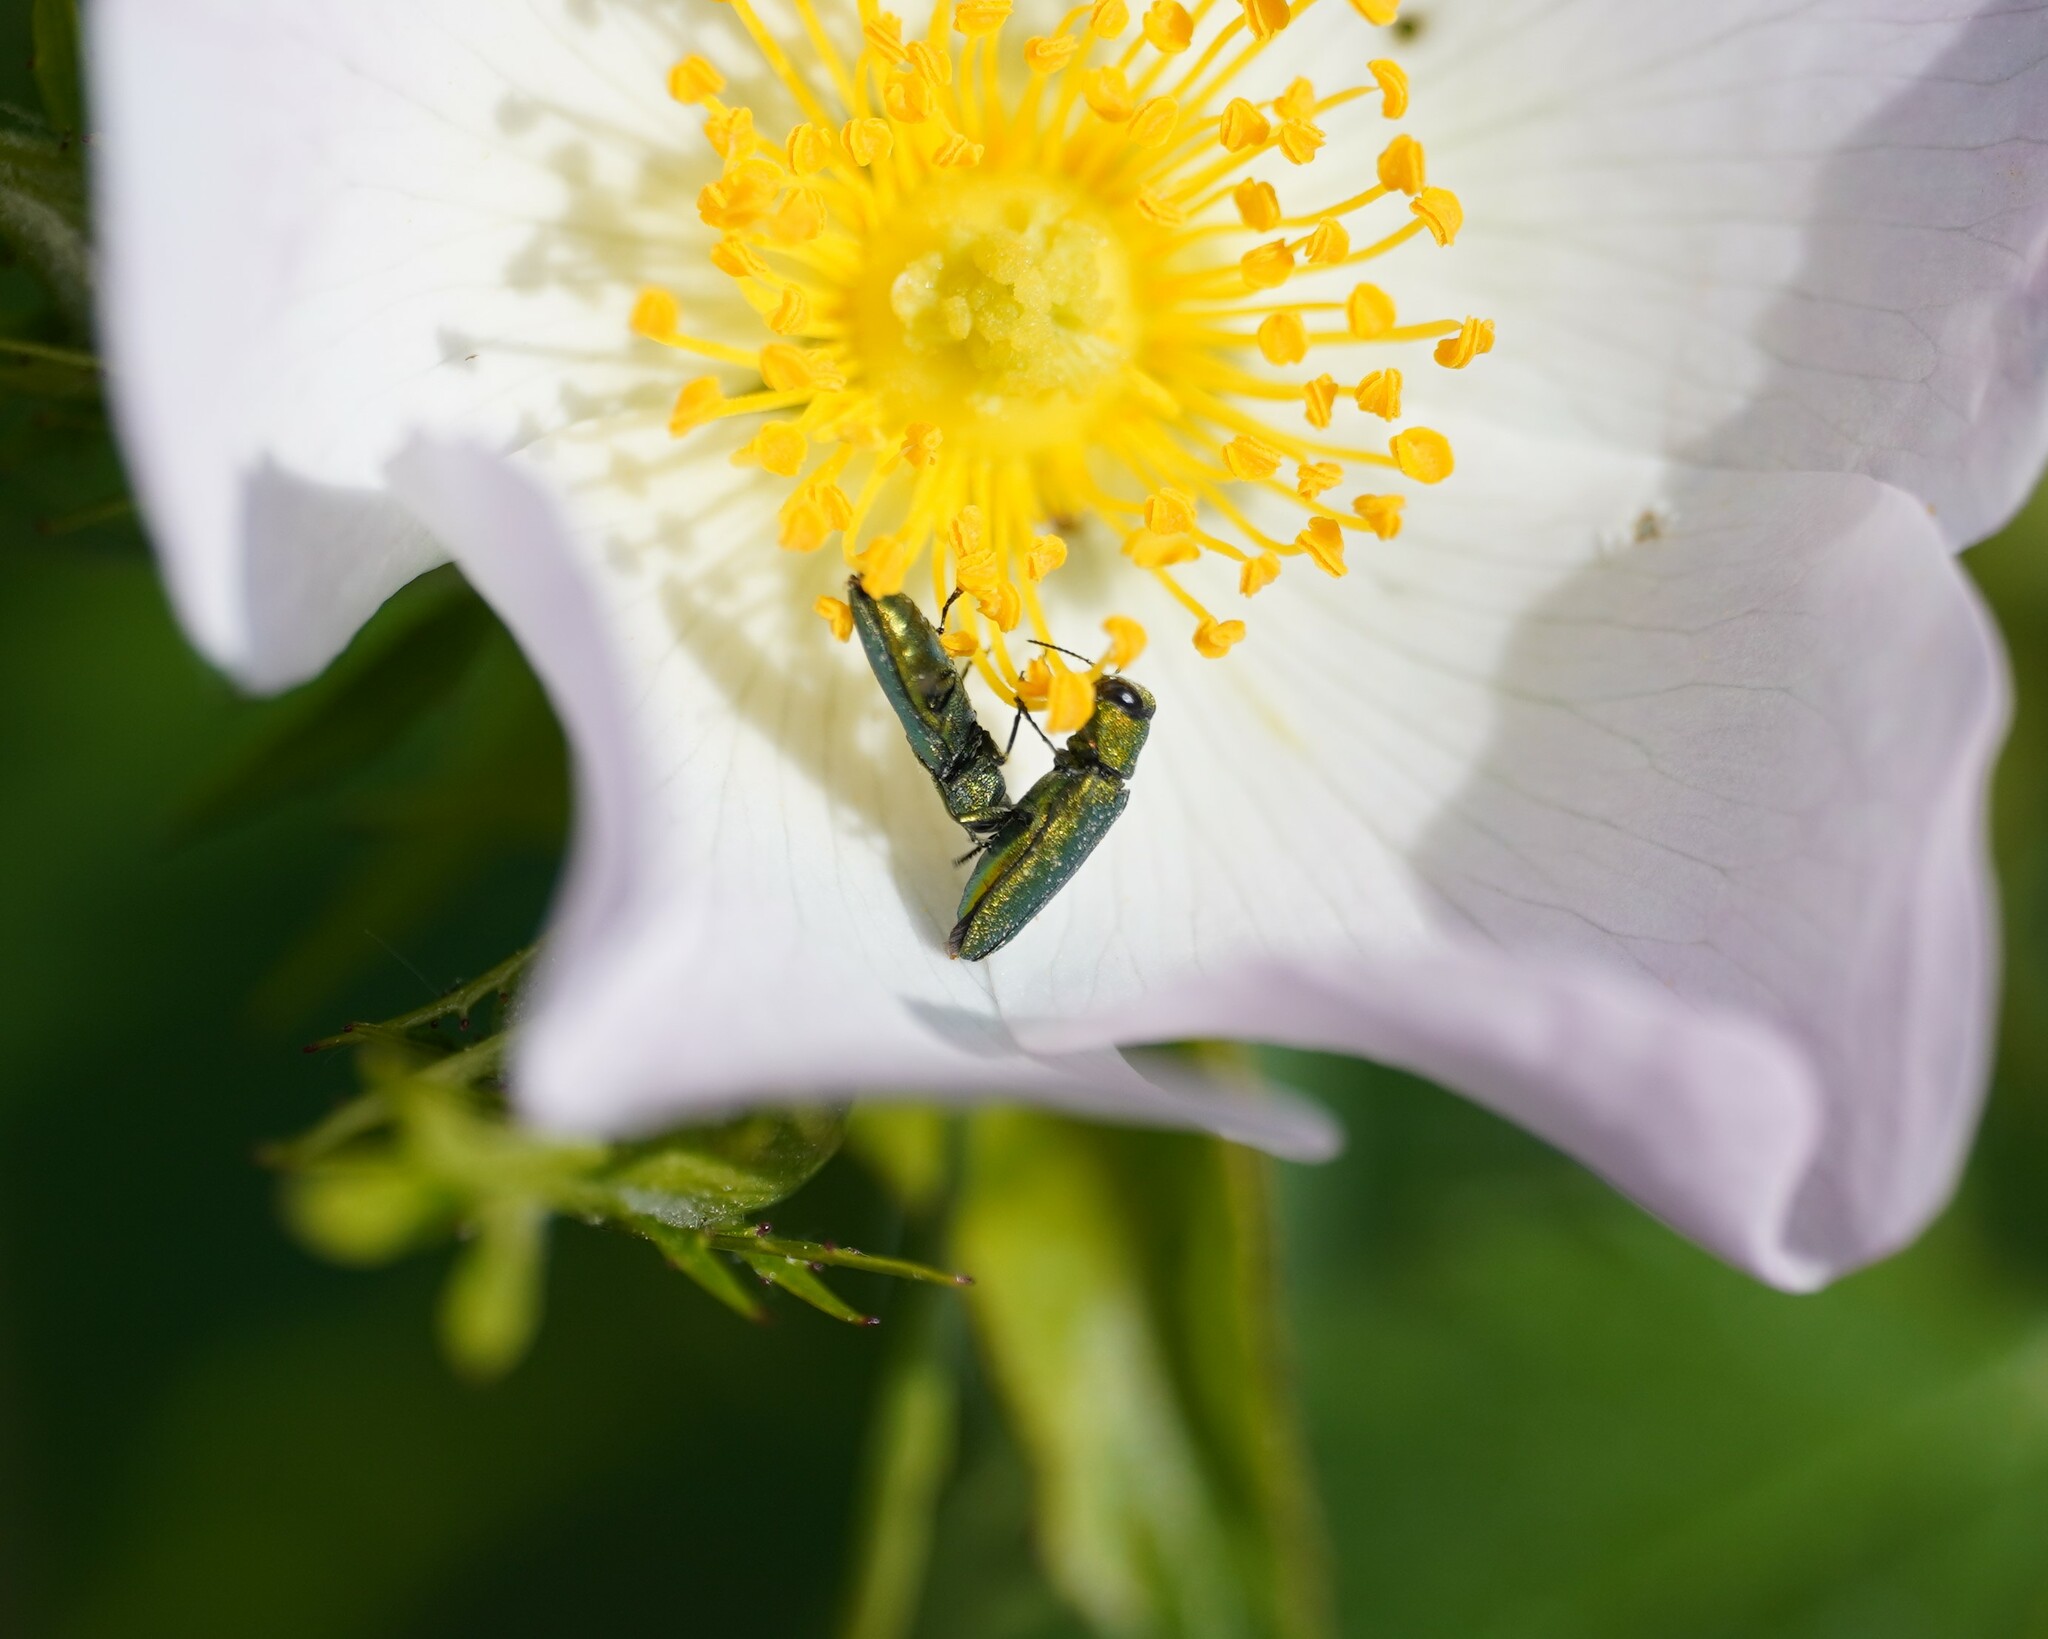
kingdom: Animalia
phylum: Arthropoda
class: Insecta
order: Coleoptera
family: Buprestidae
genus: Anthaxia
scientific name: Anthaxia nitidula
